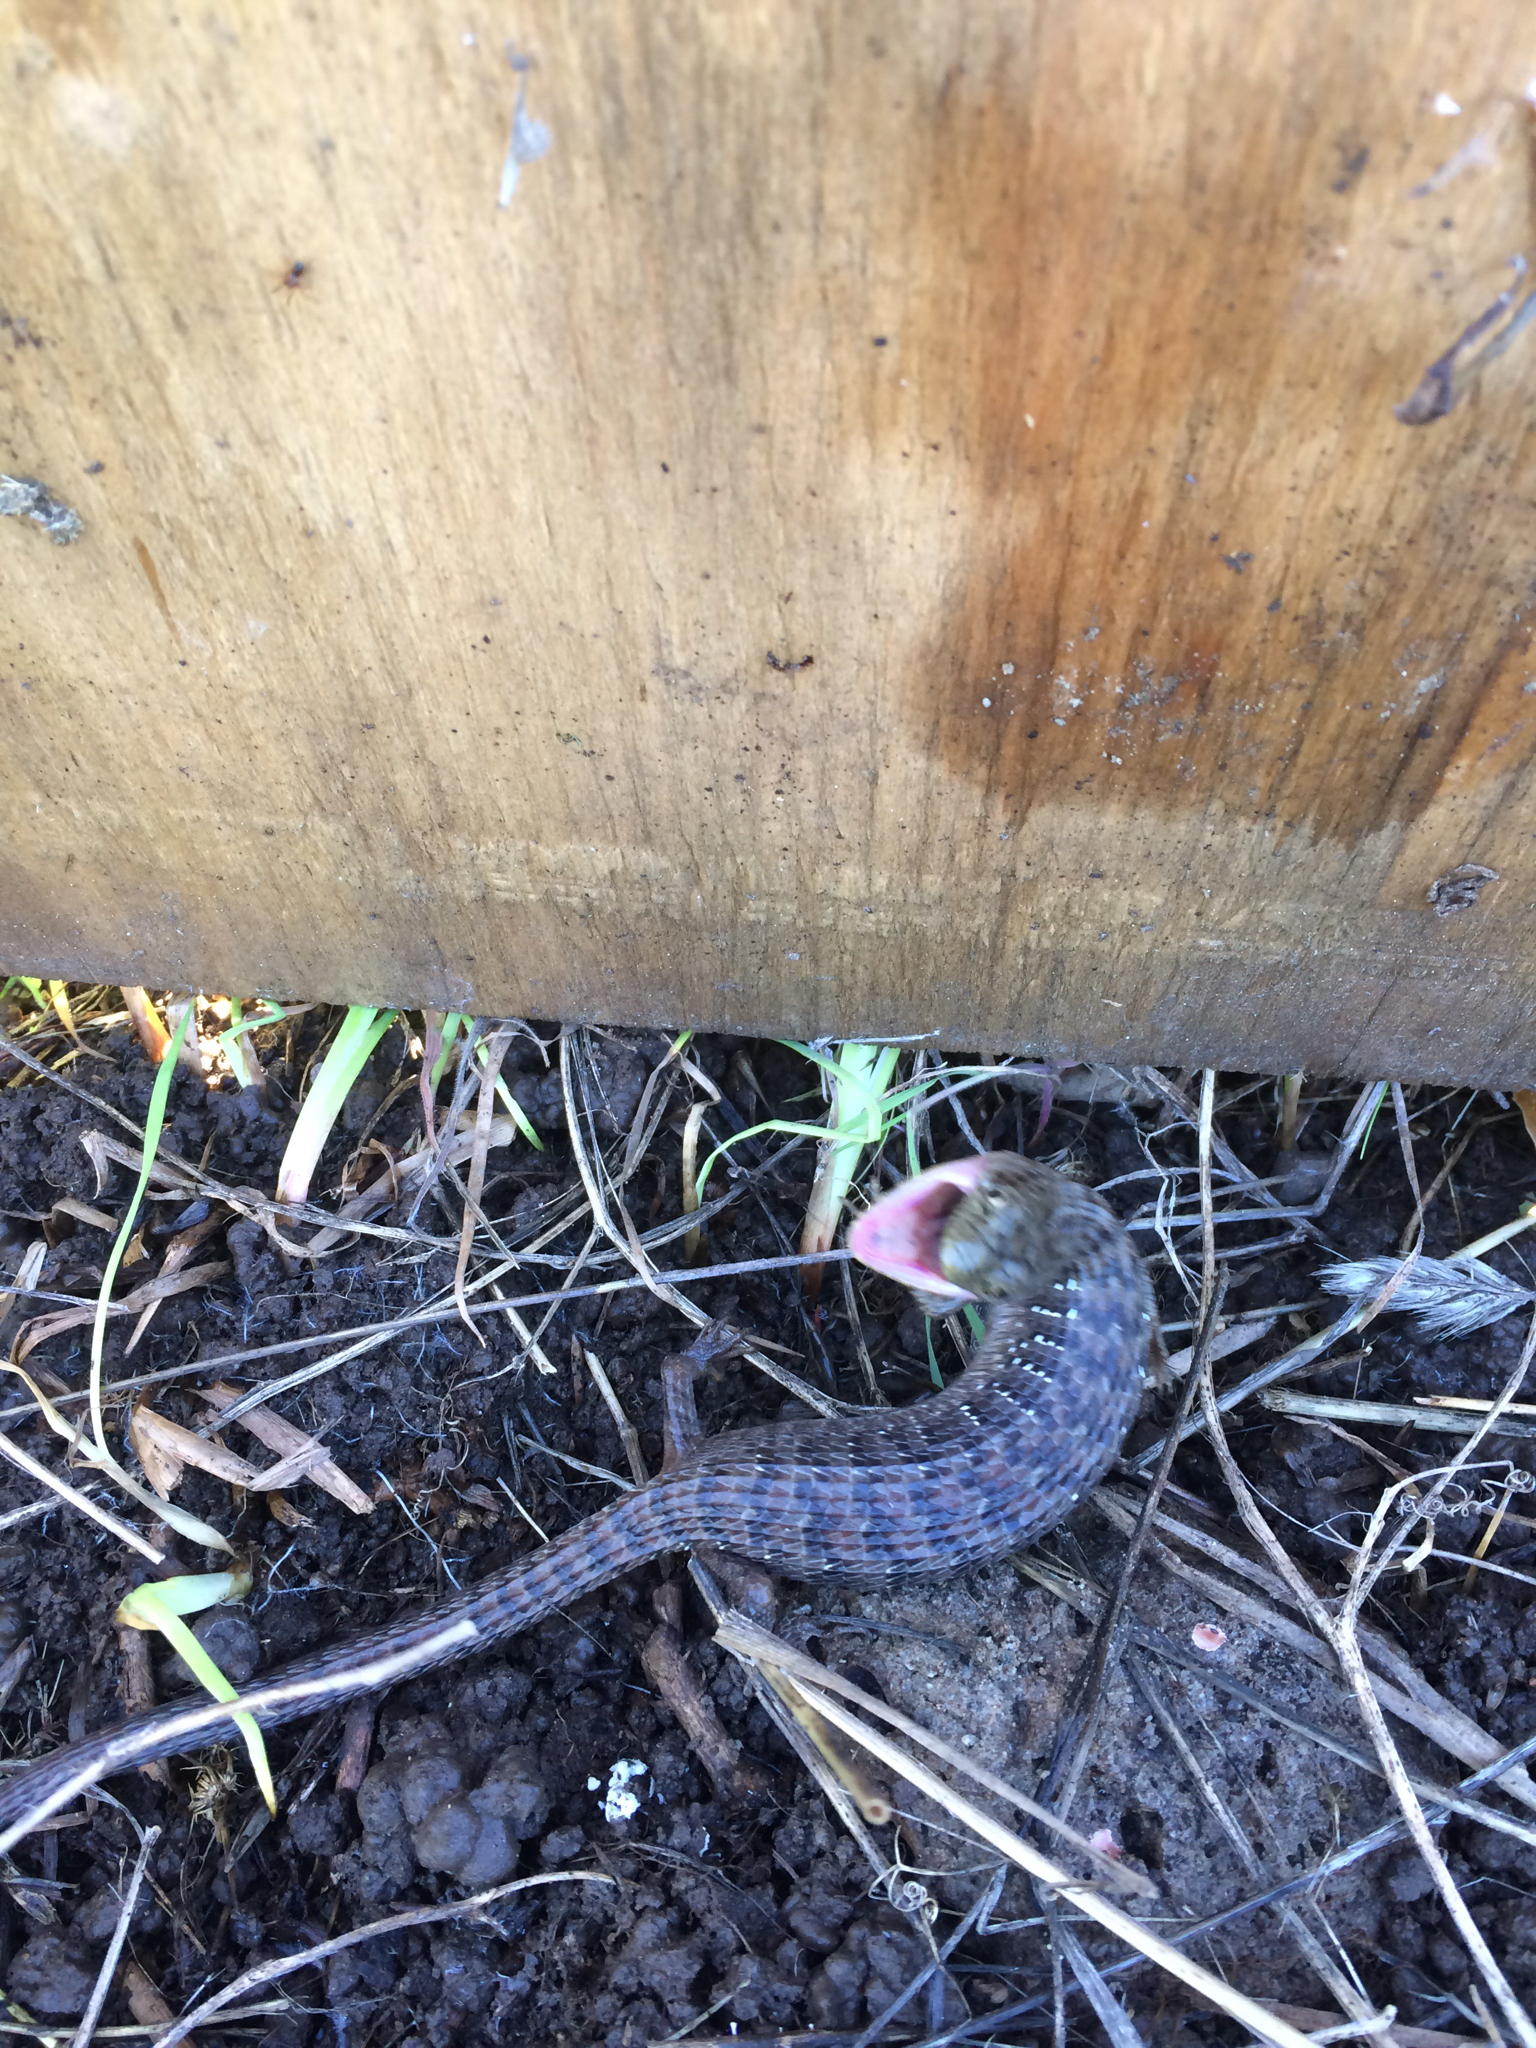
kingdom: Animalia
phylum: Chordata
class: Squamata
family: Anguidae
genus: Elgaria
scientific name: Elgaria multicarinata
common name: Southern alligator lizard
